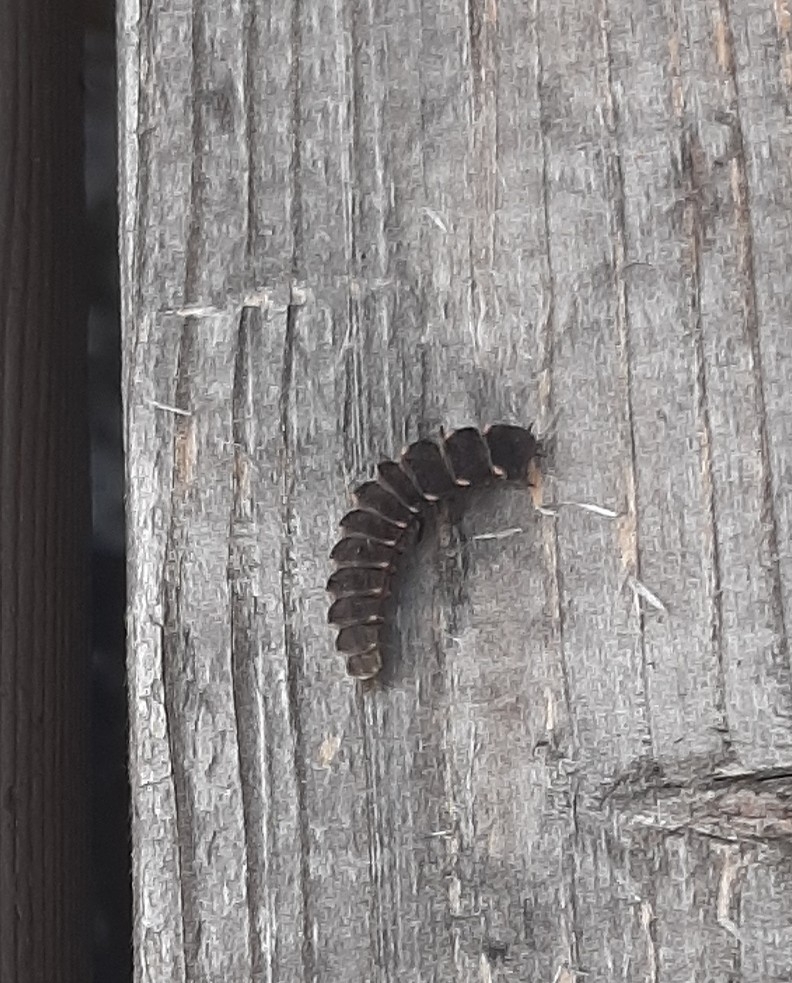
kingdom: Animalia
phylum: Arthropoda
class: Insecta
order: Coleoptera
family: Lampyridae
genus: Lampyris
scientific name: Lampyris noctiluca
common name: Glow-worm
